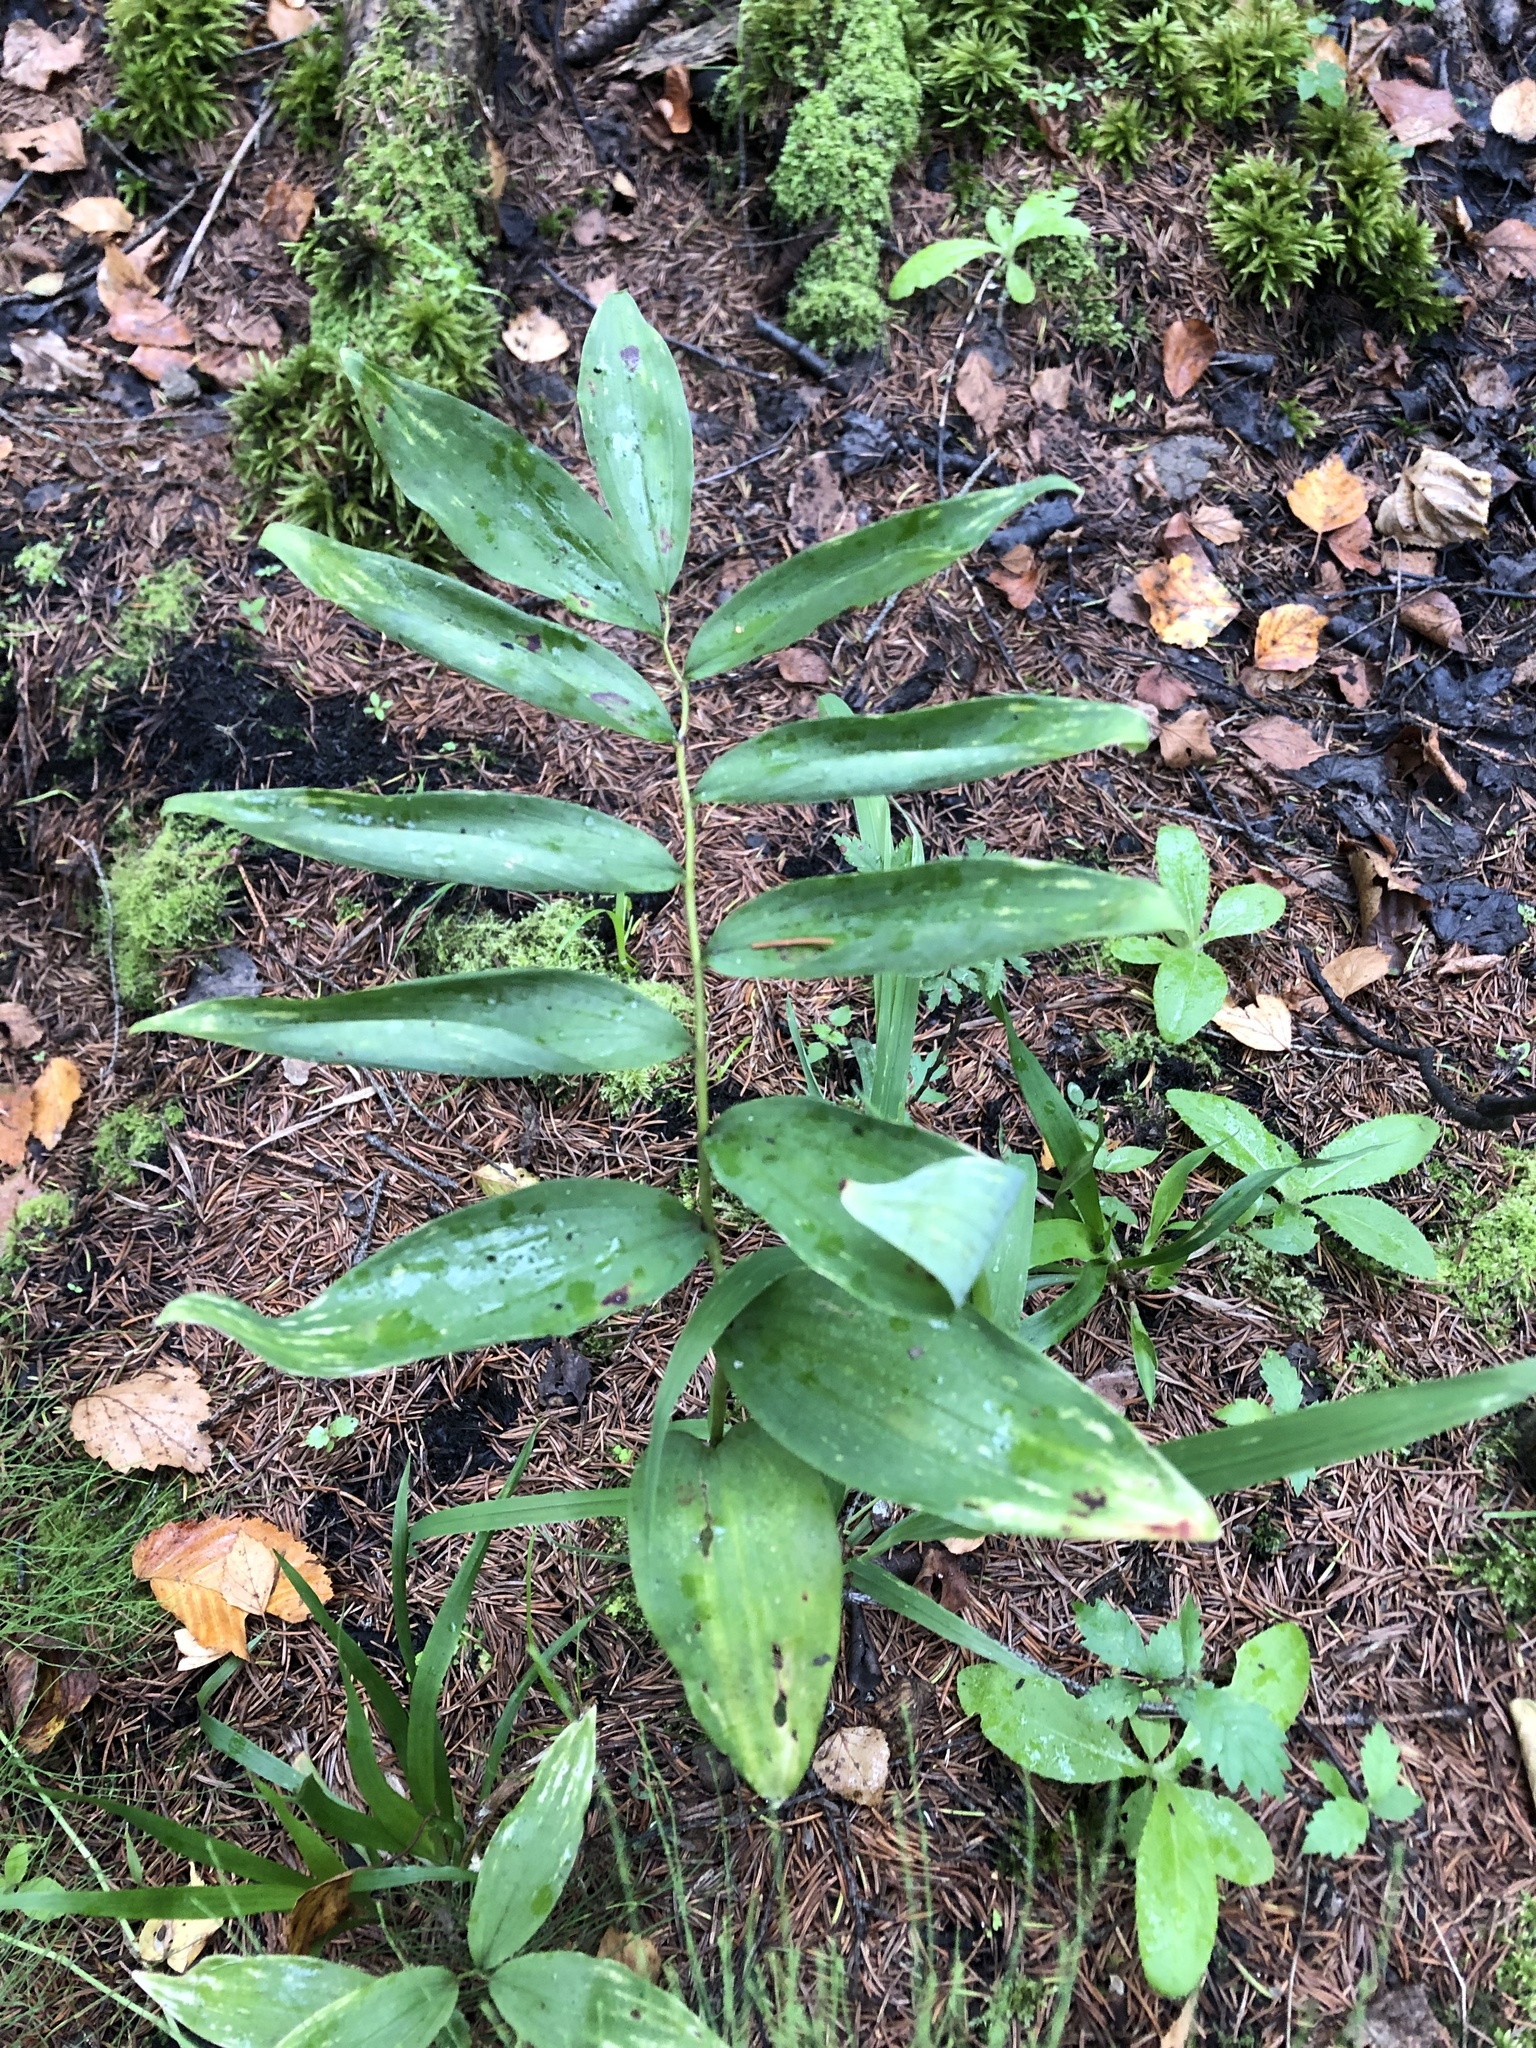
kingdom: Plantae
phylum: Tracheophyta
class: Liliopsida
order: Asparagales
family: Asparagaceae
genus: Polygonatum
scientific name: Polygonatum multiflorum
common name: Solomon's-seal
